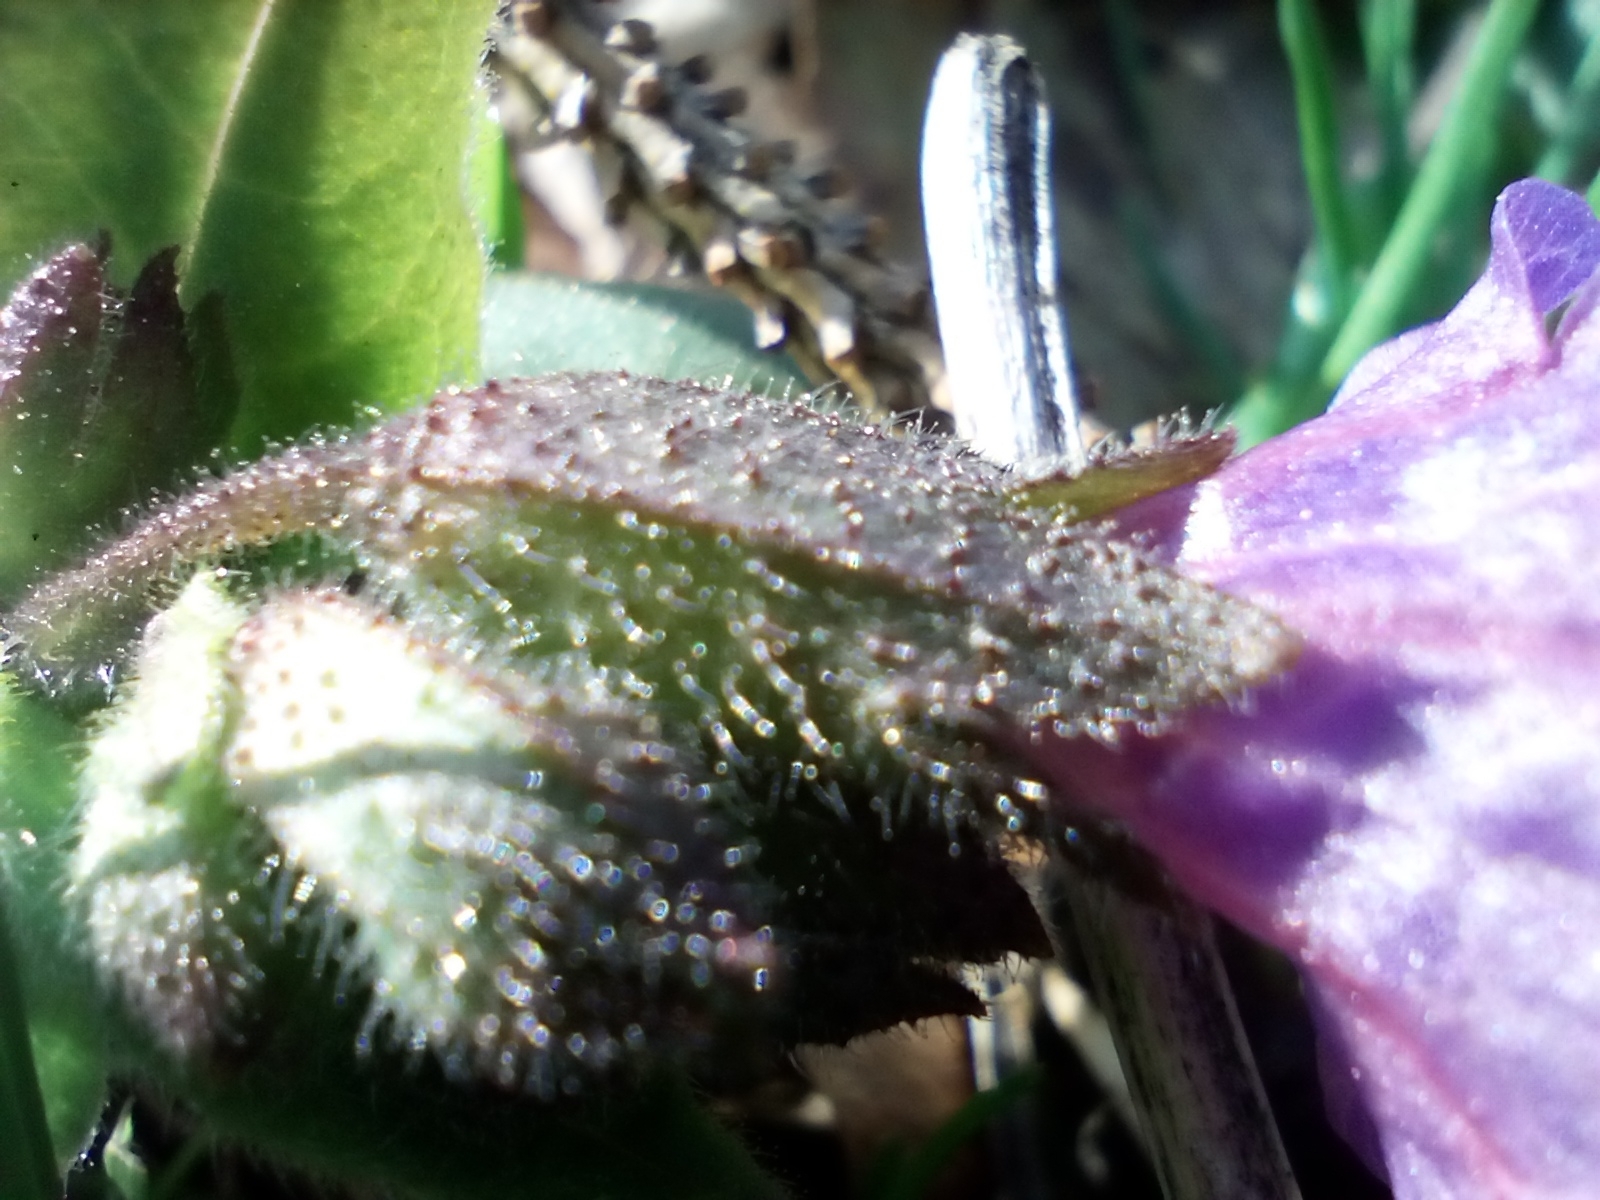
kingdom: Plantae
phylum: Tracheophyta
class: Magnoliopsida
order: Boraginales
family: Boraginaceae
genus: Pulmonaria
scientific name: Pulmonaria obscura
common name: Suffolk lungwort
